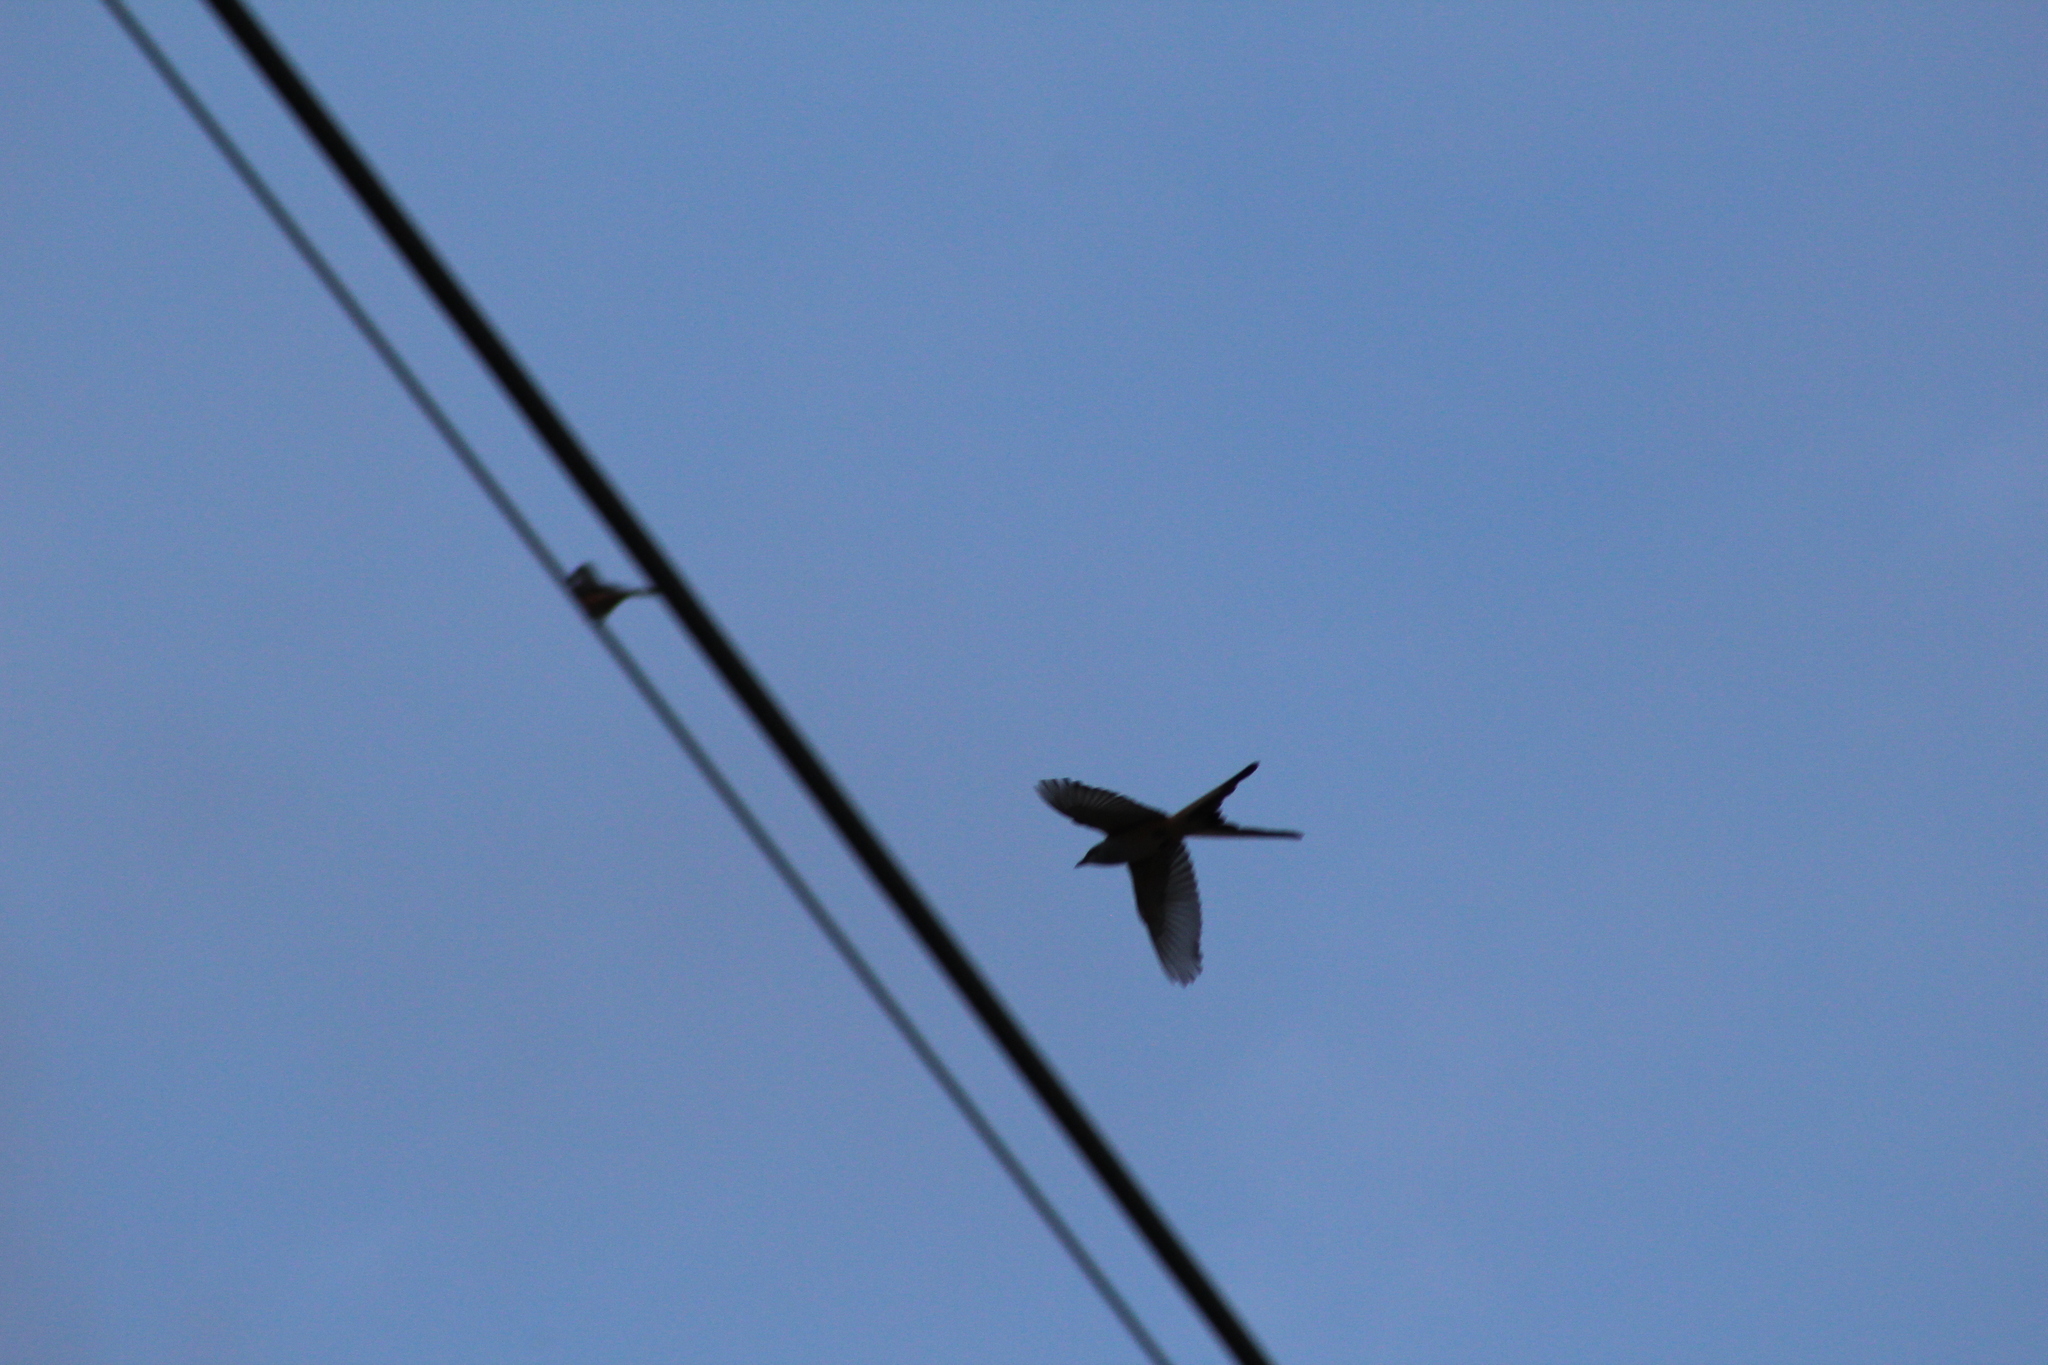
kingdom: Animalia
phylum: Chordata
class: Aves
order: Passeriformes
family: Tyrannidae
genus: Tyrannus
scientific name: Tyrannus forficatus
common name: Scissor-tailed flycatcher
